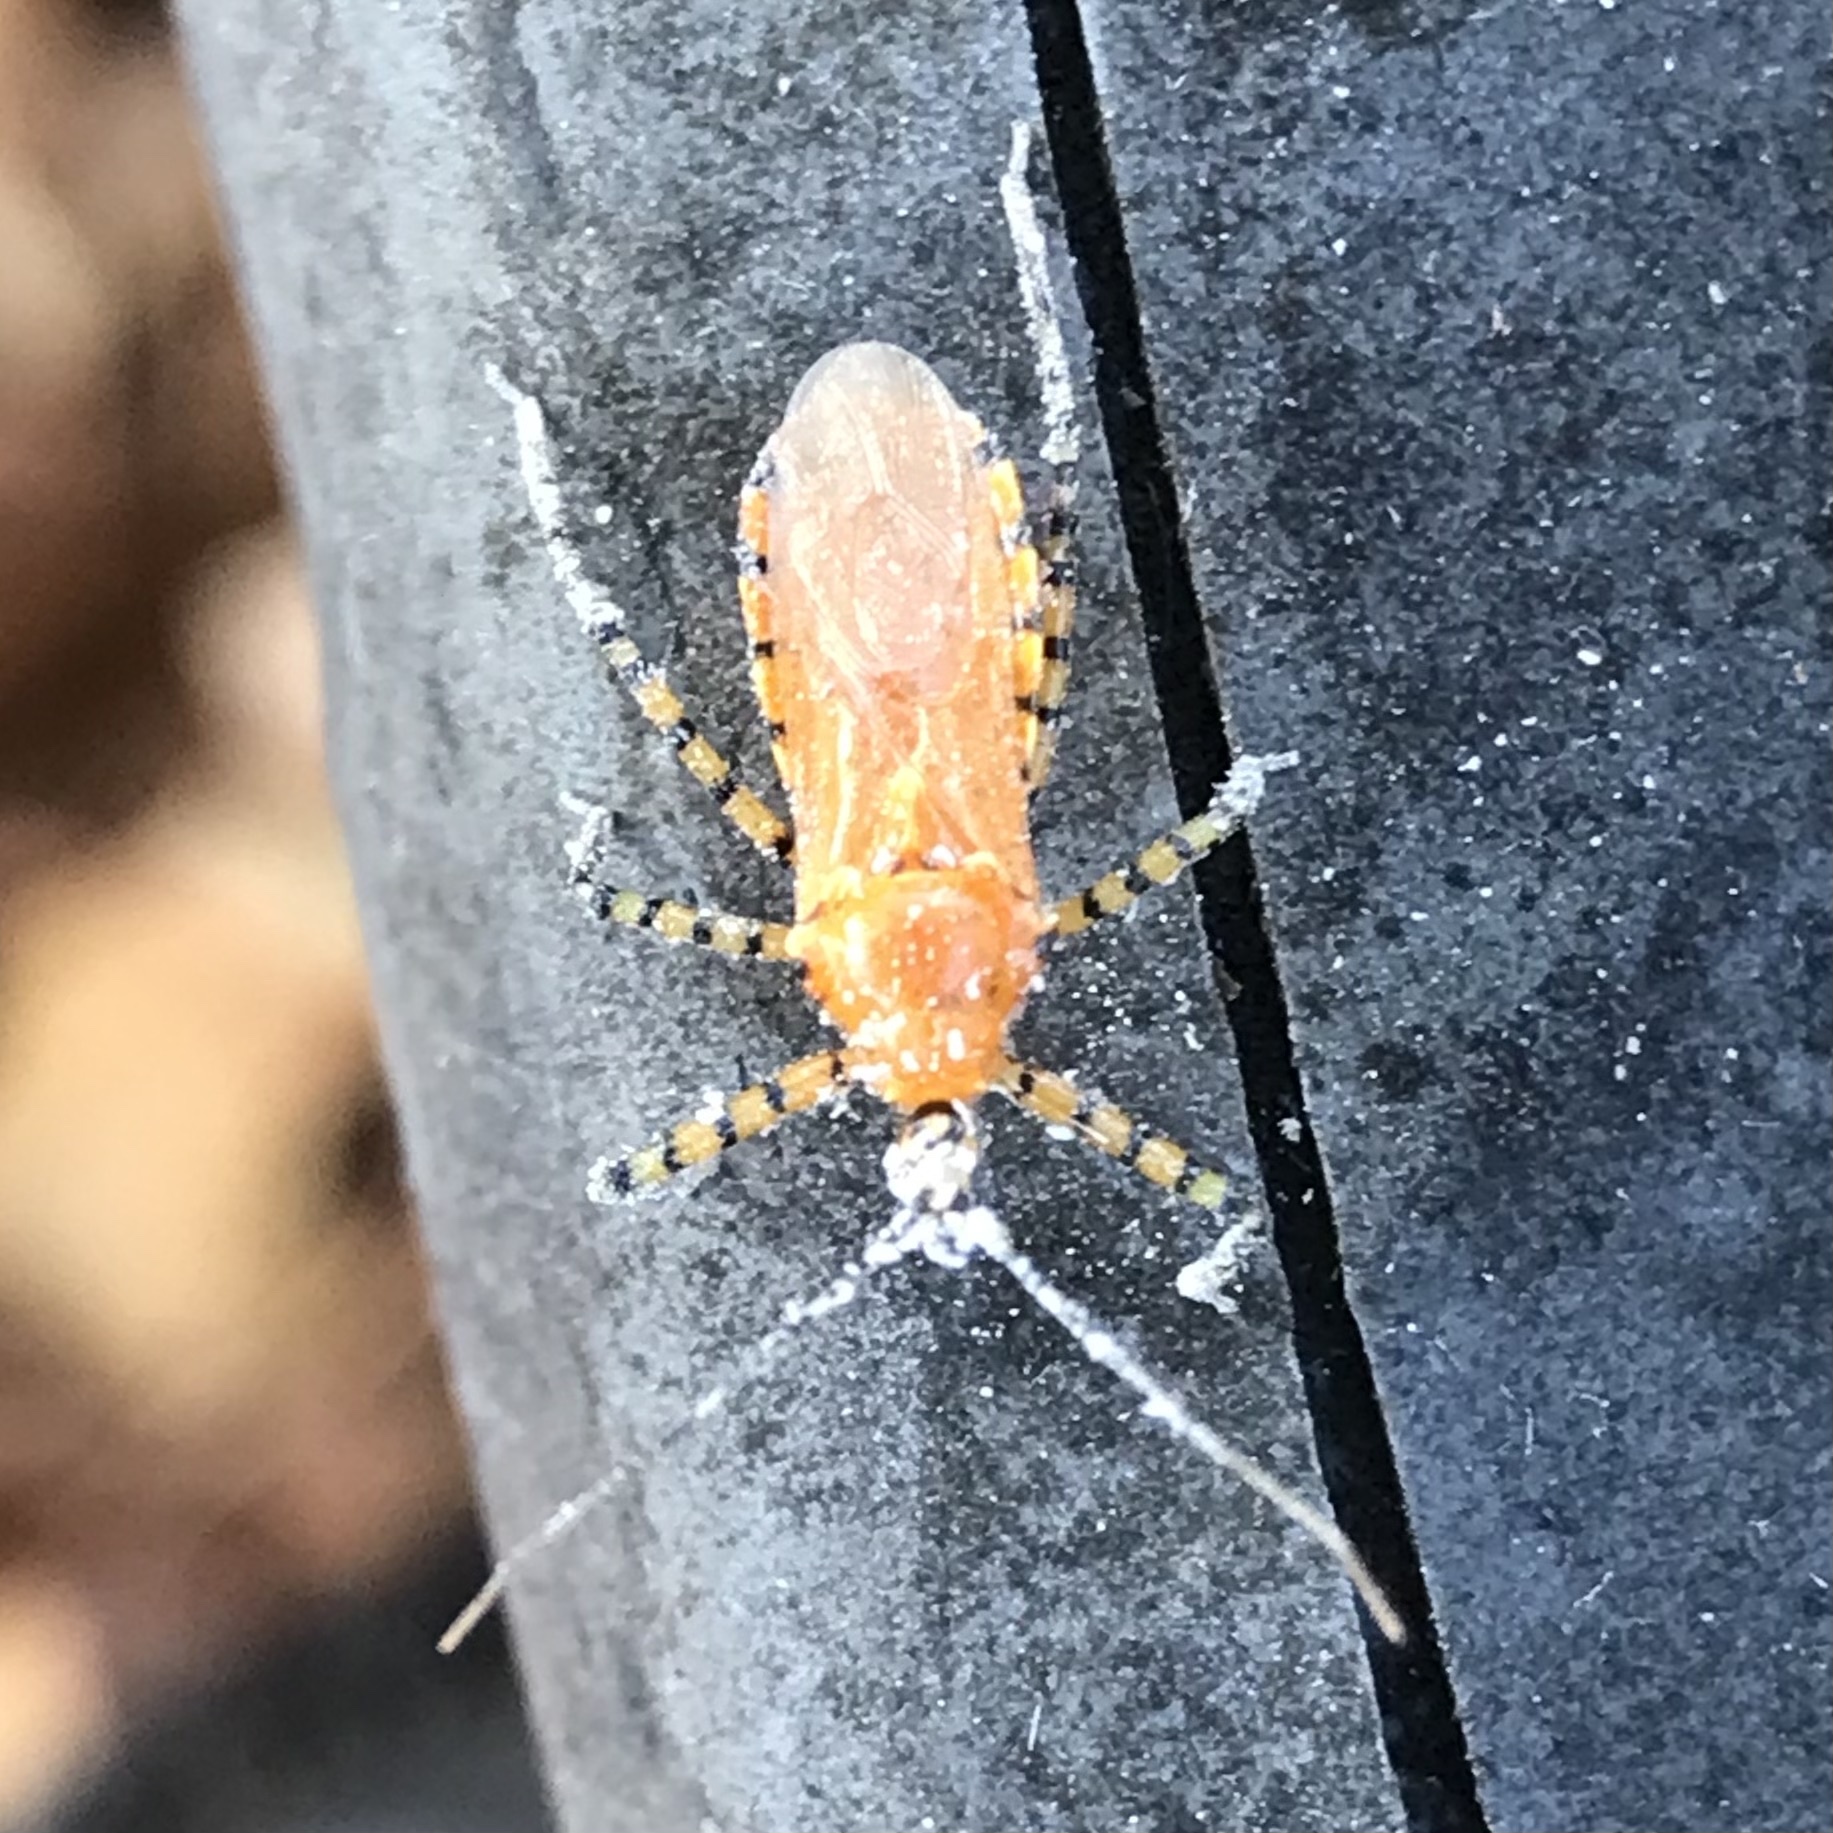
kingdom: Animalia
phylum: Arthropoda
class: Insecta
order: Hemiptera
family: Reduviidae
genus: Pselliopus
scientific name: Pselliopus barberi
